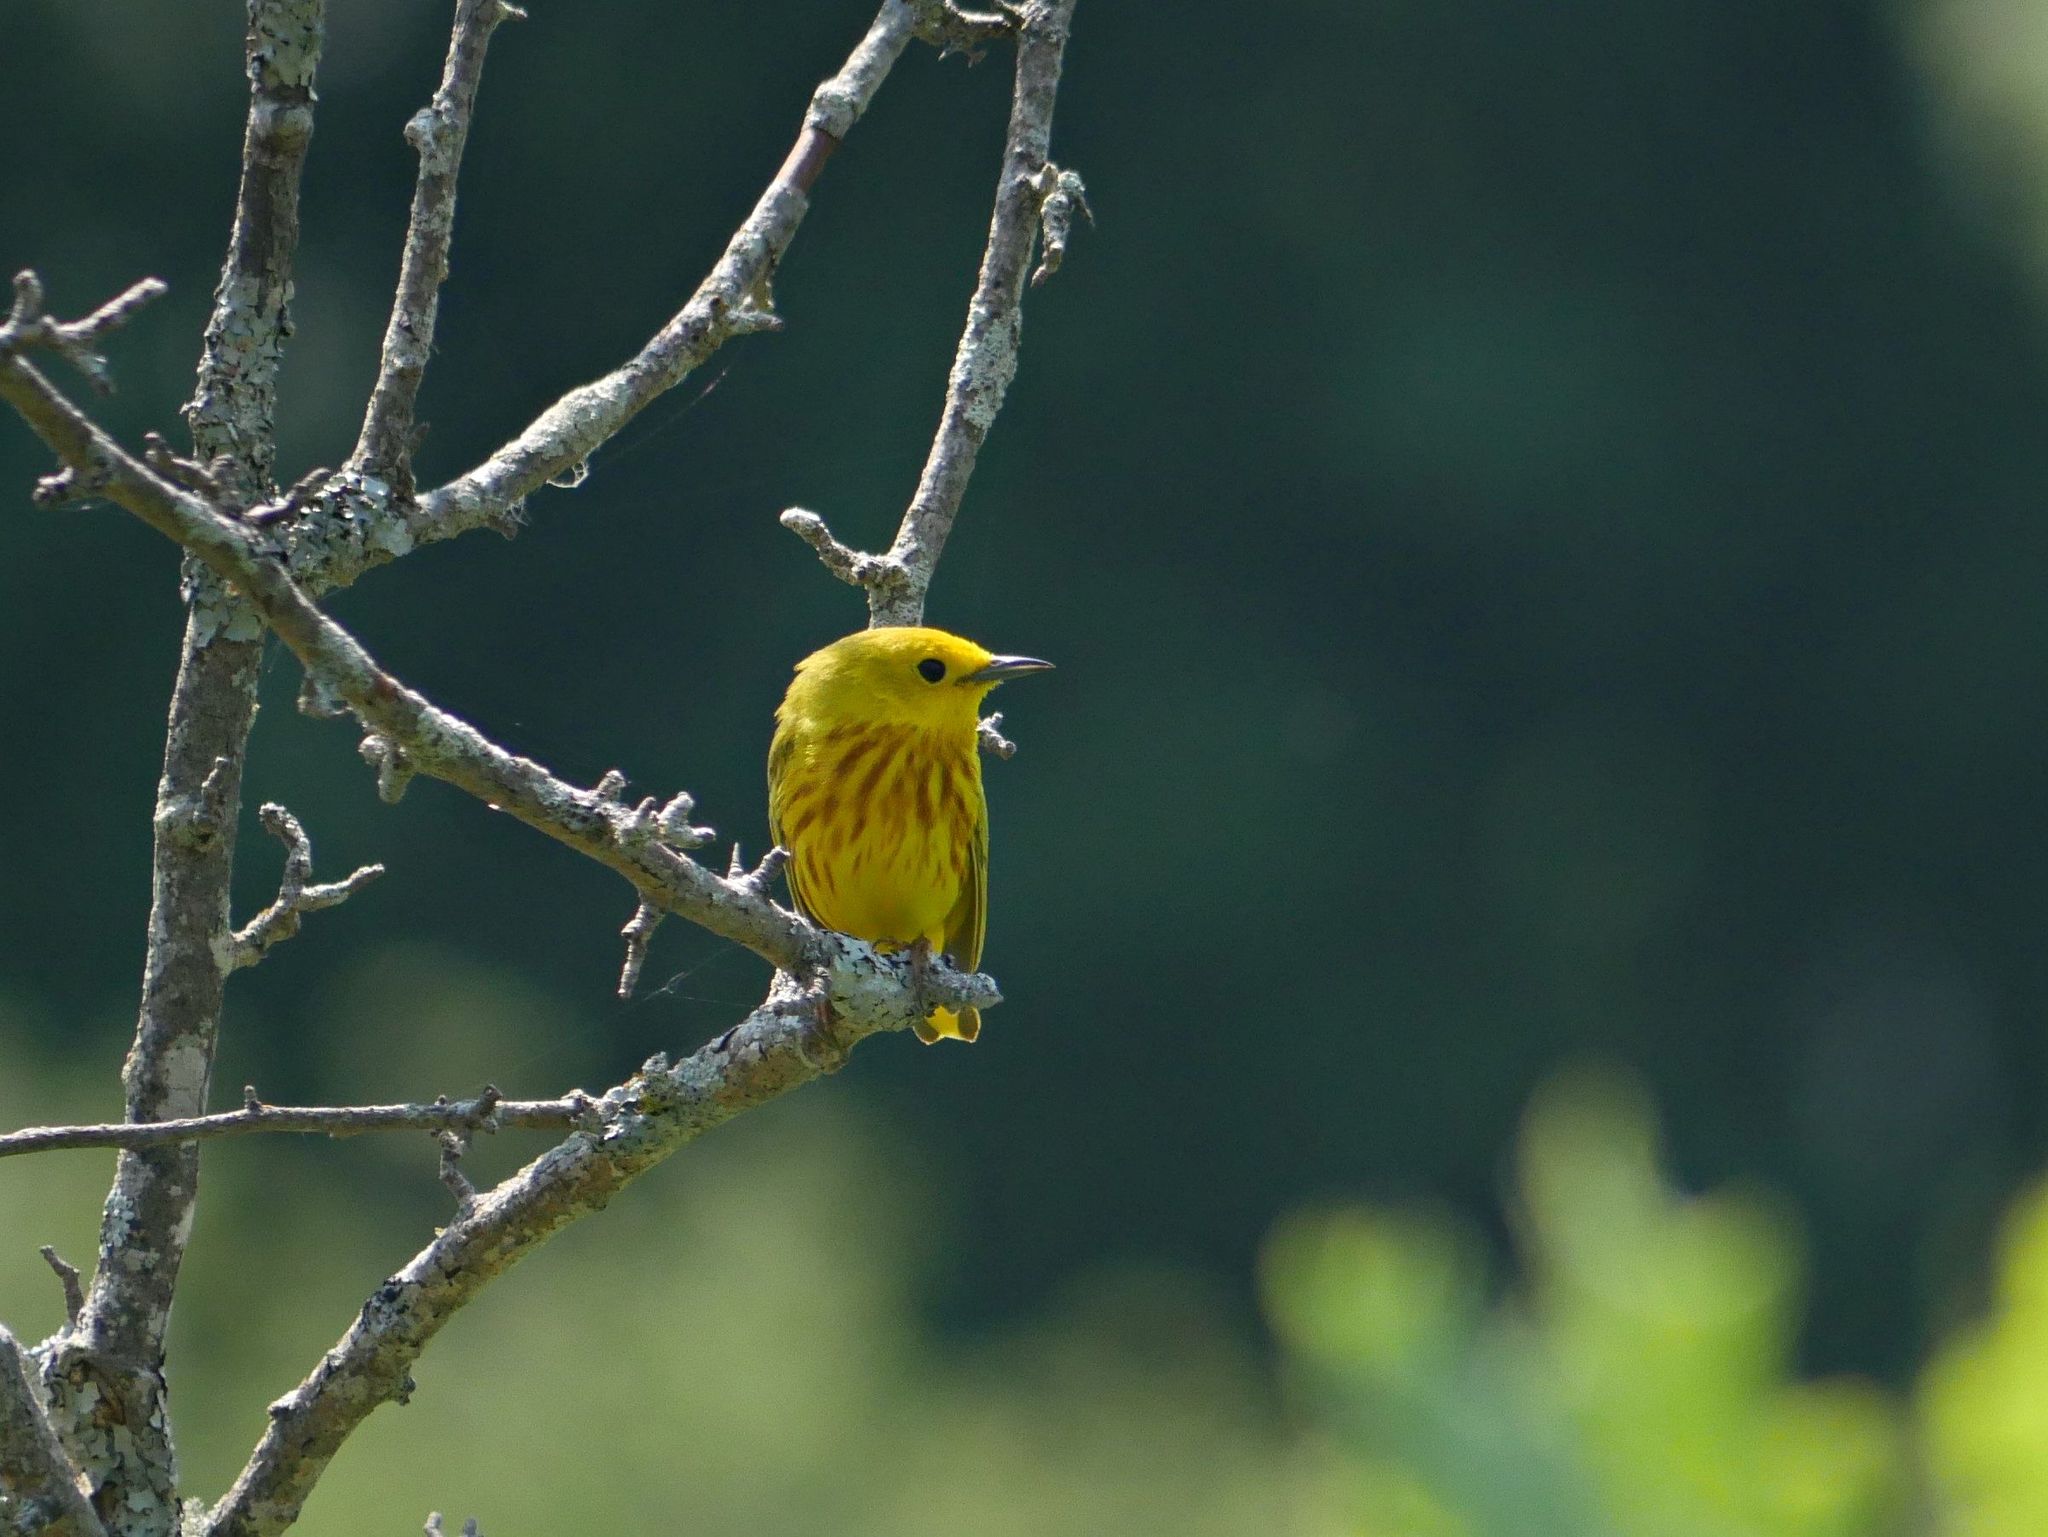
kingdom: Animalia
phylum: Chordata
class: Aves
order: Passeriformes
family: Parulidae
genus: Setophaga
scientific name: Setophaga petechia
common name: Yellow warbler
